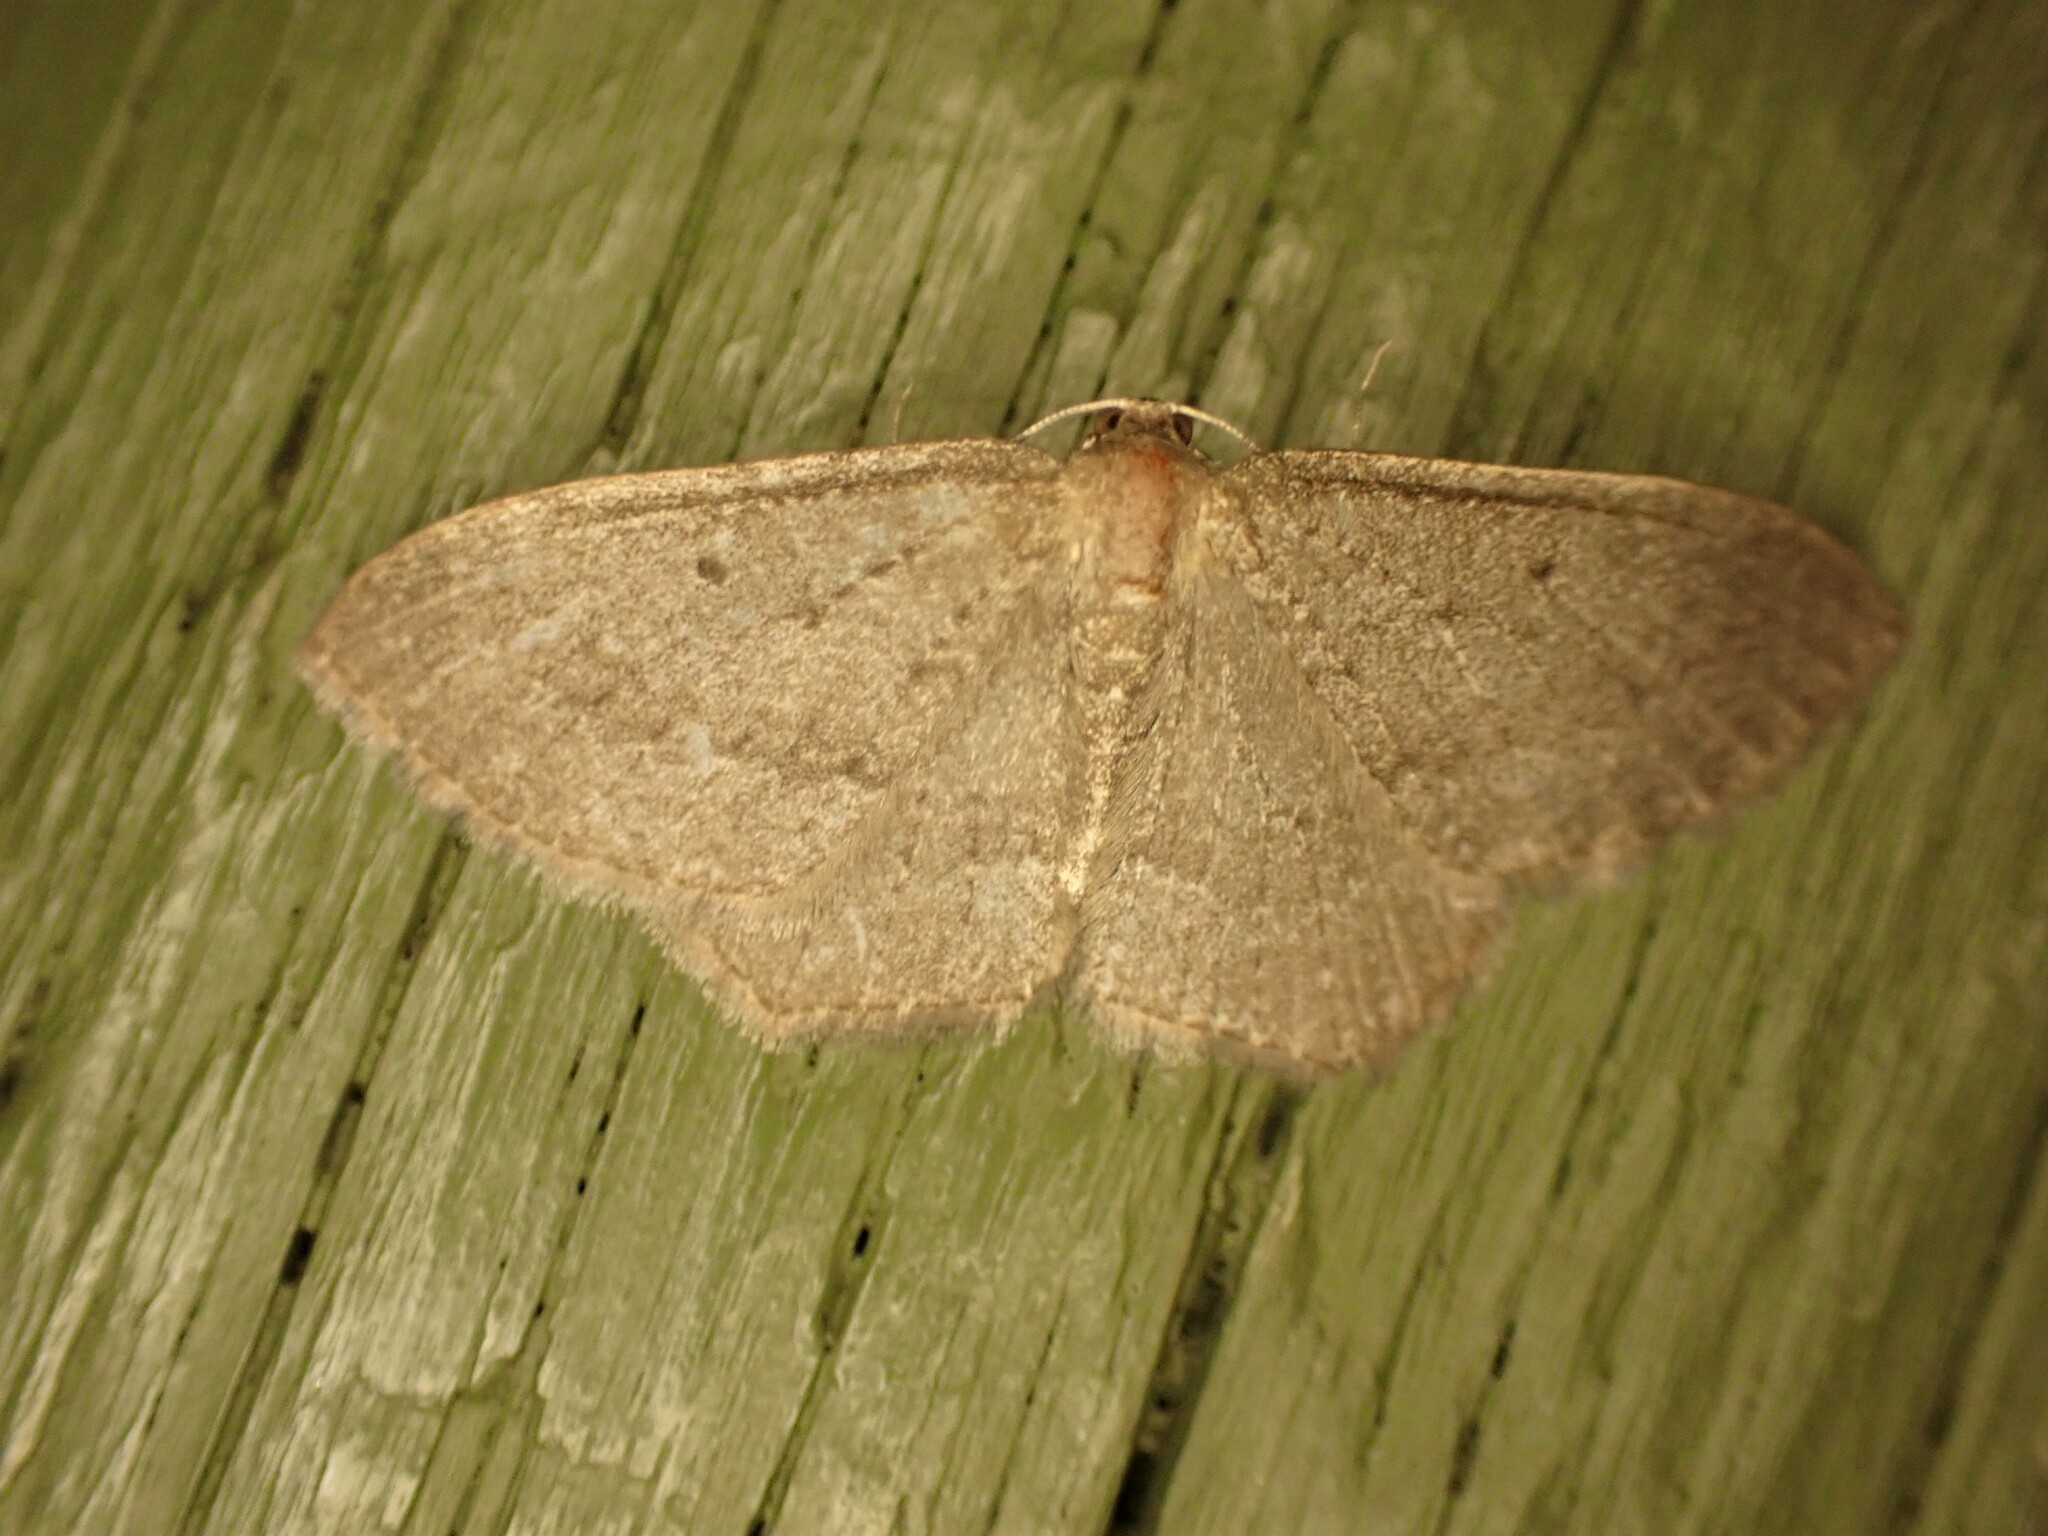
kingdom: Animalia
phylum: Arthropoda
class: Insecta
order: Lepidoptera
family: Geometridae
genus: Poecilasthena
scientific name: Poecilasthena schistaria
